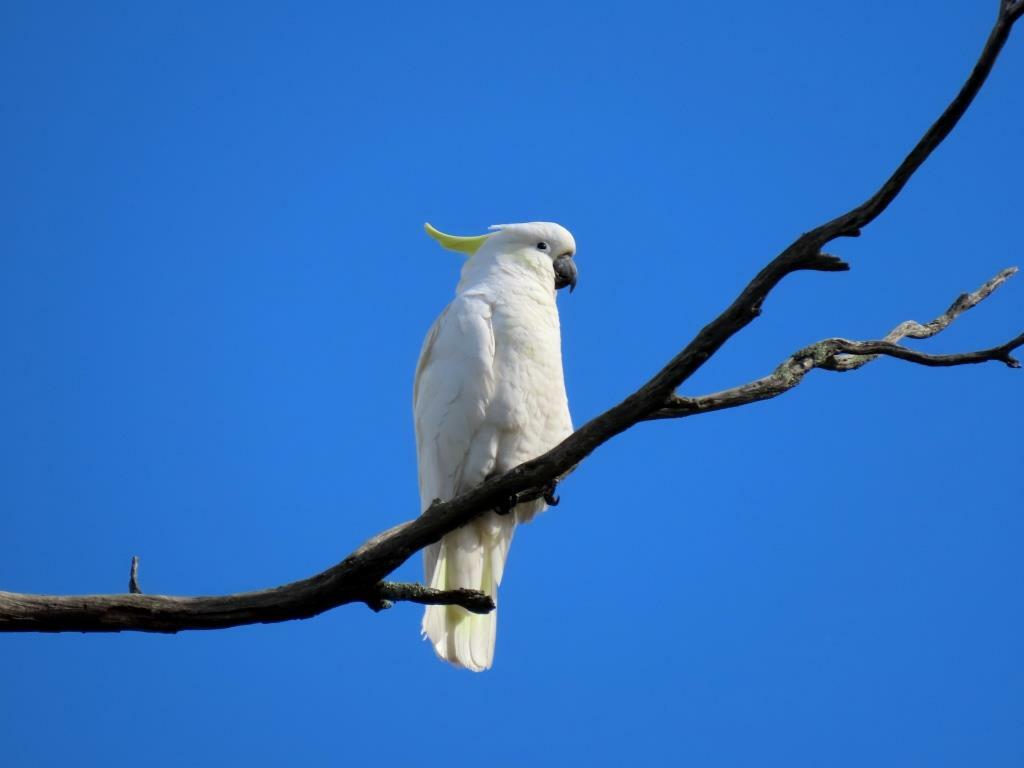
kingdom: Animalia
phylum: Chordata
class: Aves
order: Psittaciformes
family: Psittacidae
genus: Cacatua
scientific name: Cacatua galerita
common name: Sulphur-crested cockatoo
